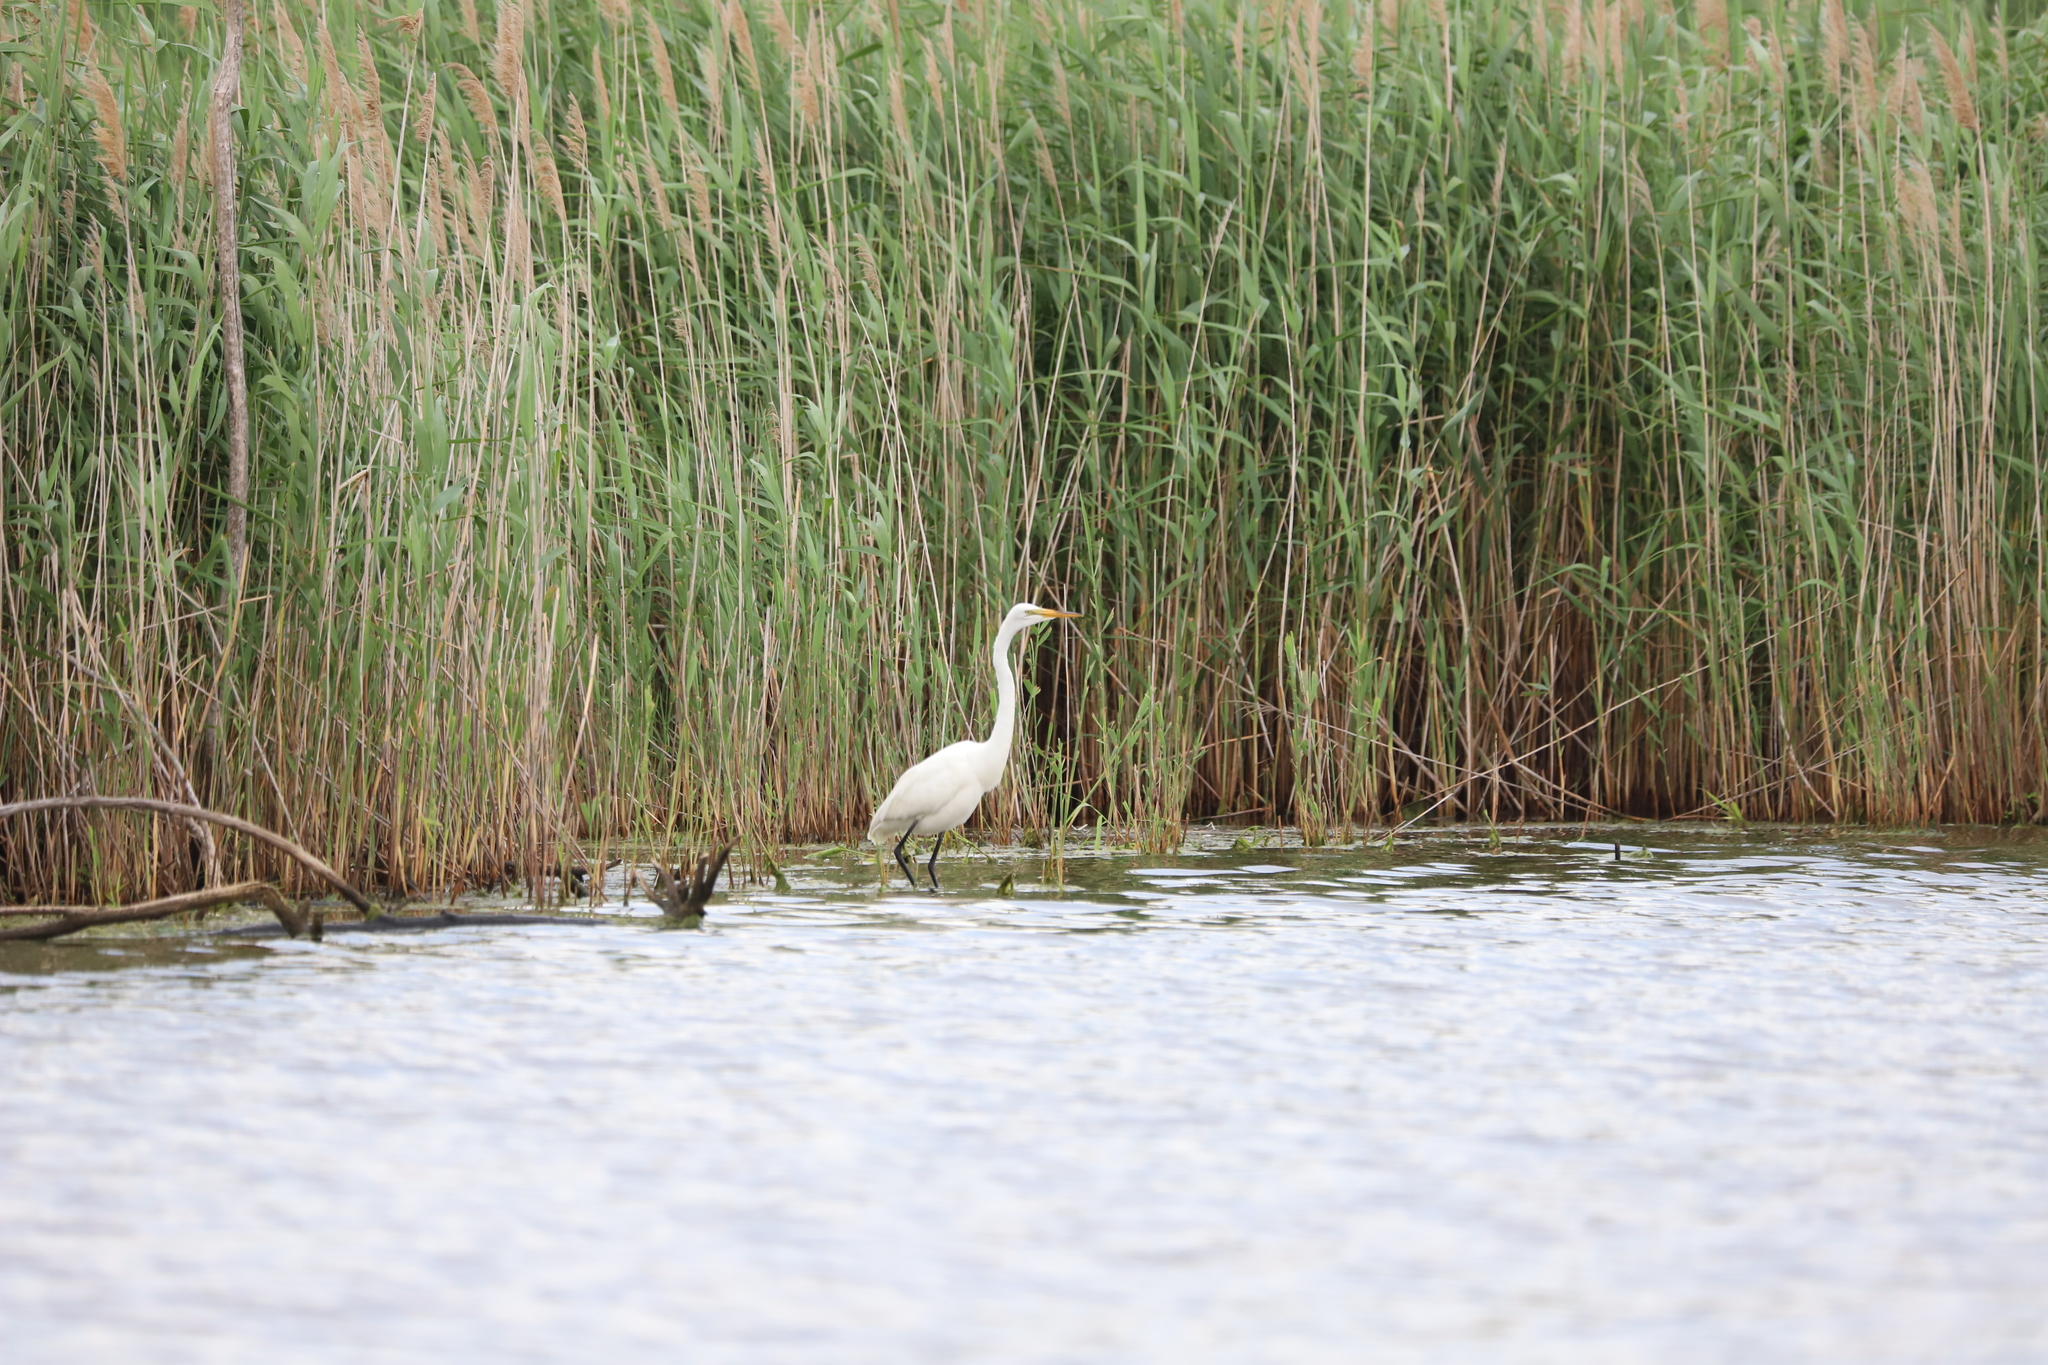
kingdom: Animalia
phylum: Chordata
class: Aves
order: Pelecaniformes
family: Ardeidae
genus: Ardea
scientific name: Ardea alba
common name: Great egret
